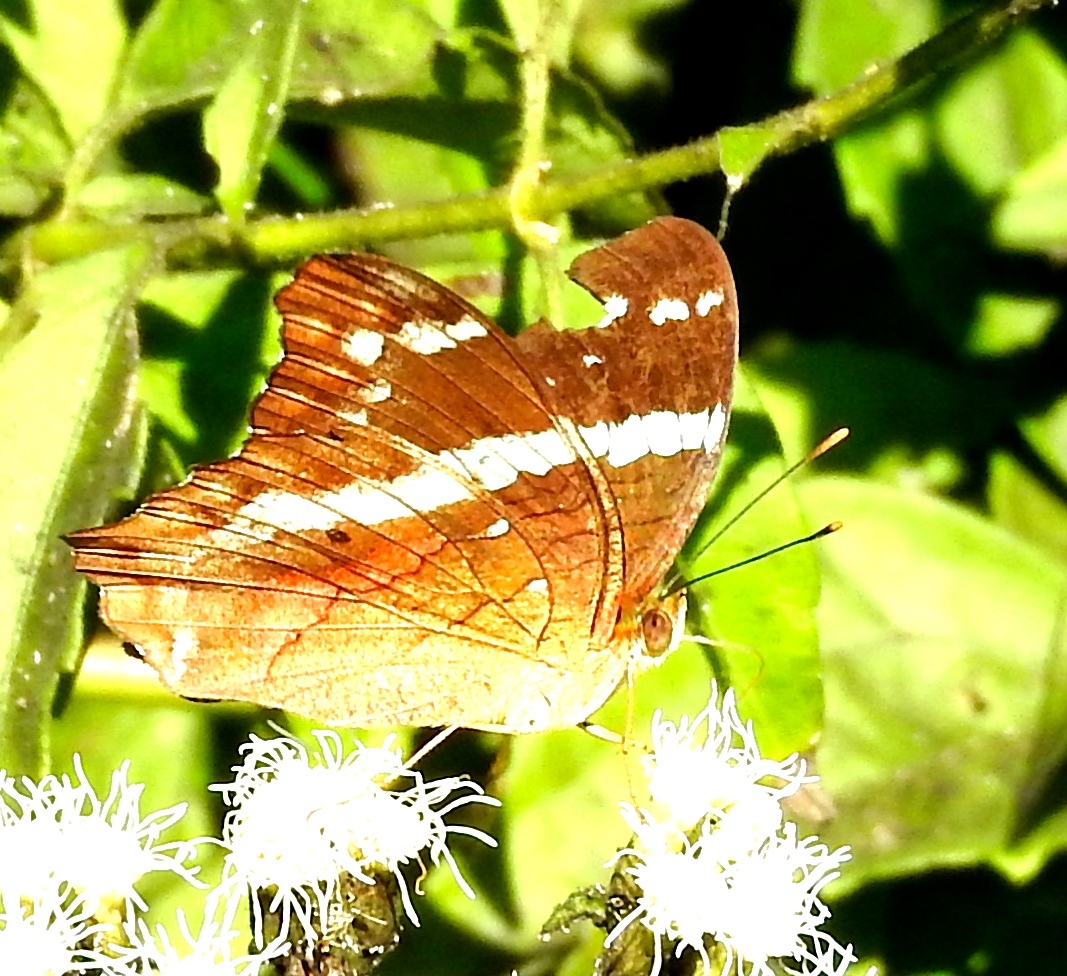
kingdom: Animalia
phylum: Arthropoda
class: Insecta
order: Lepidoptera
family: Nymphalidae
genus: Anartia
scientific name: Anartia fatima
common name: Banded peacock
